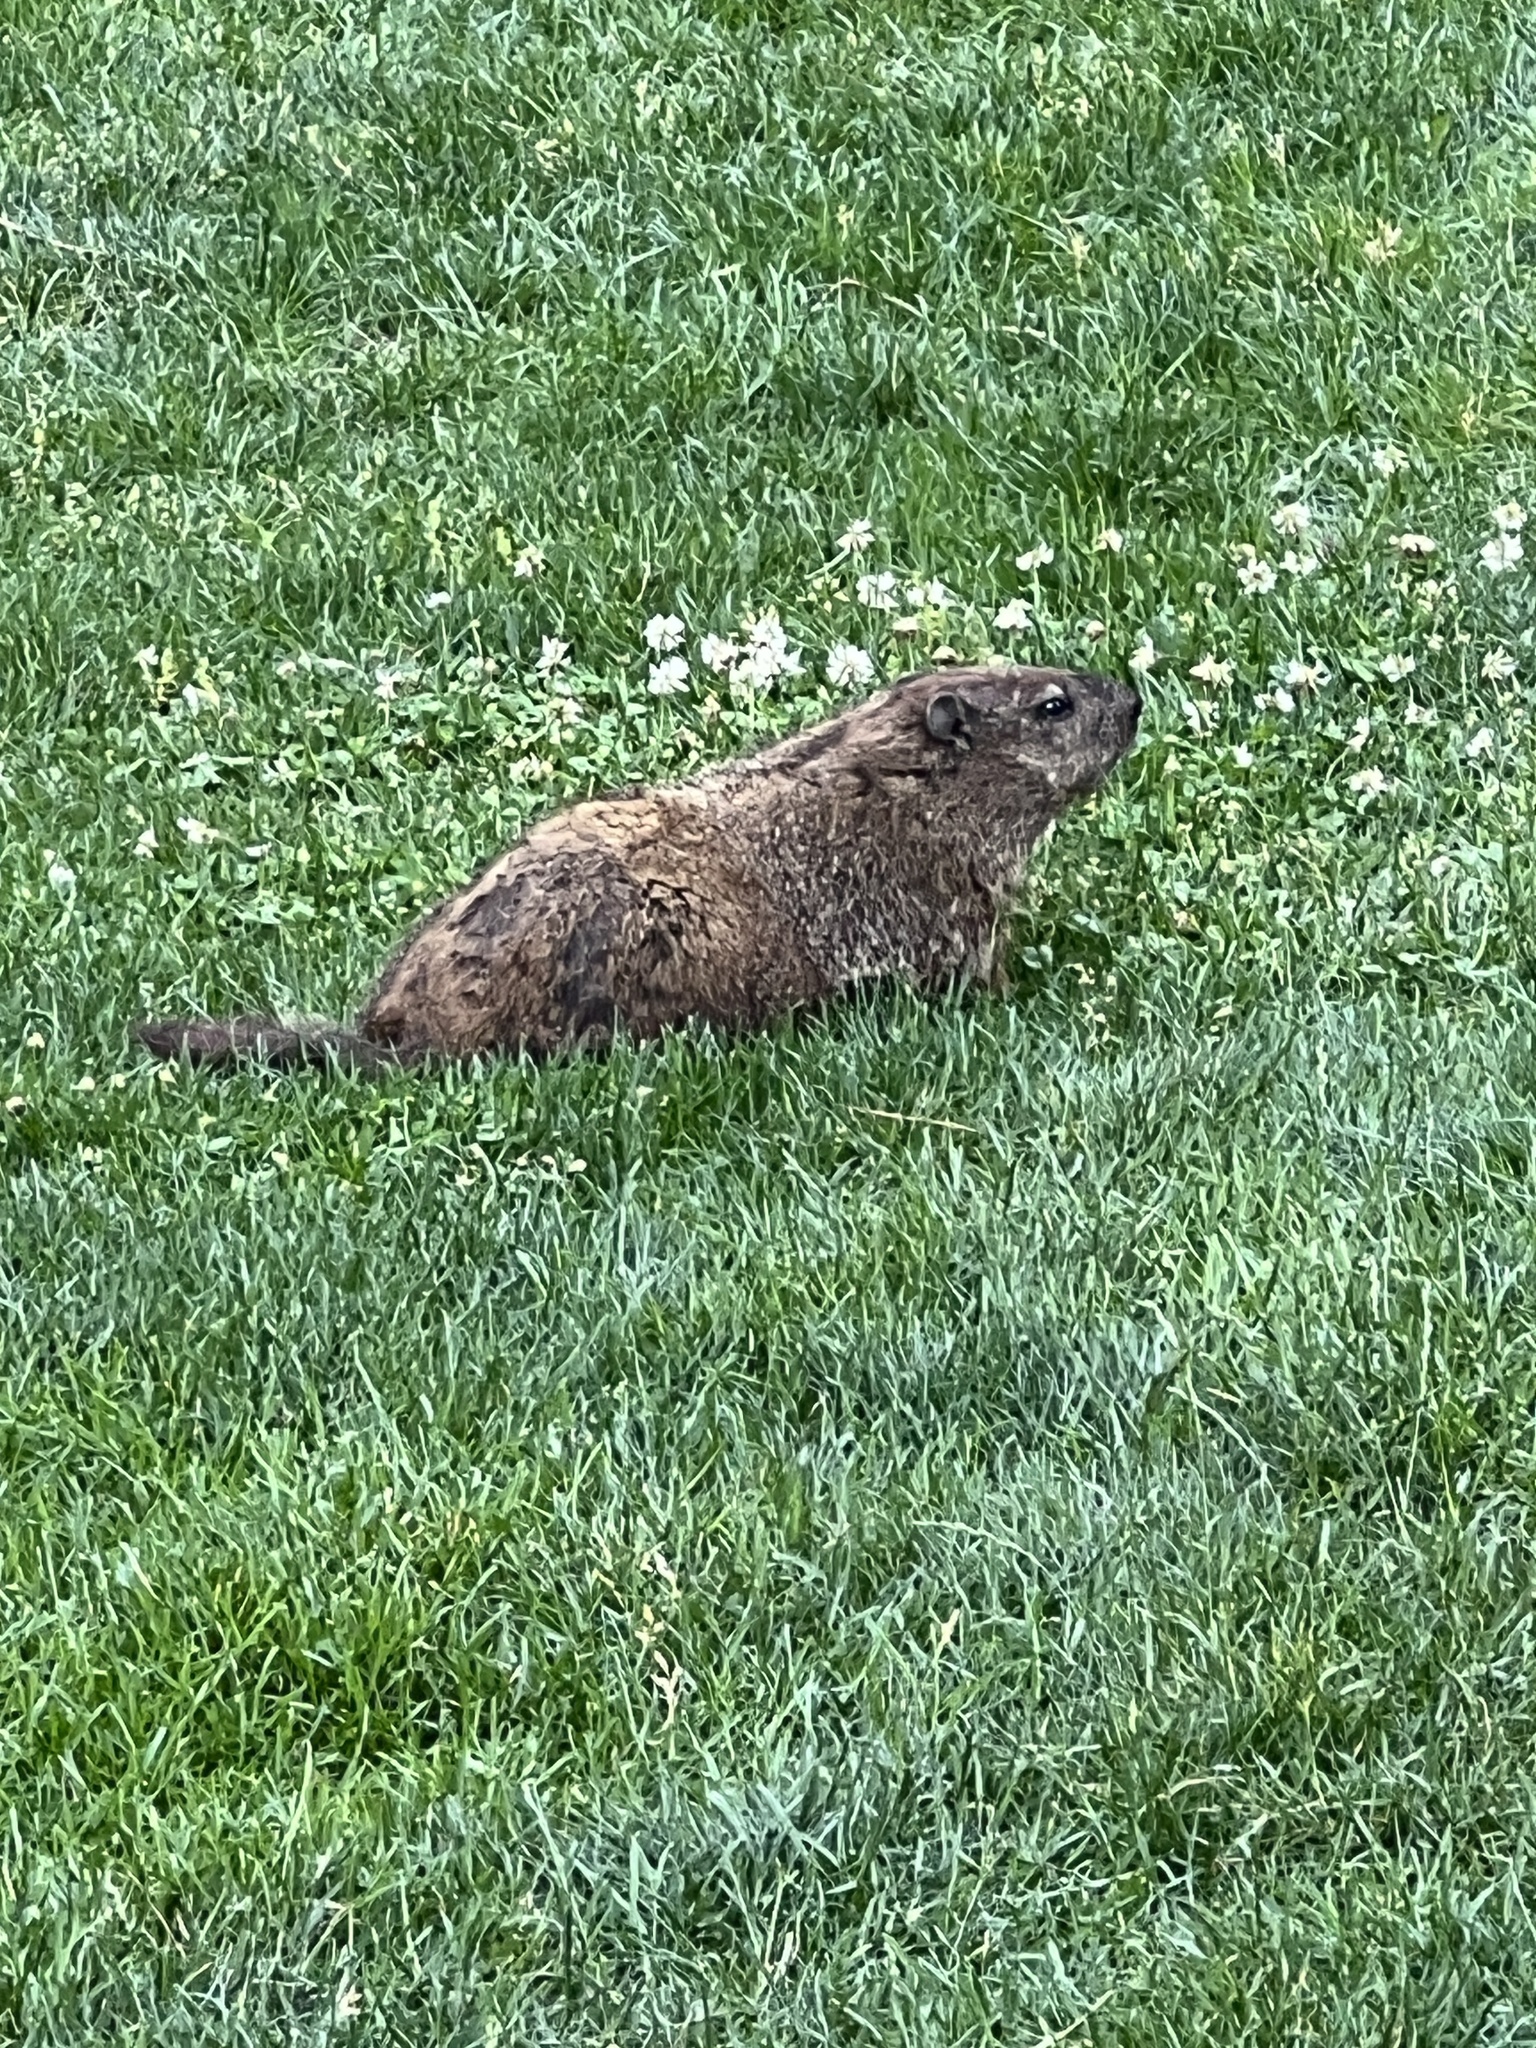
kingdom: Animalia
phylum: Chordata
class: Mammalia
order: Rodentia
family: Sciuridae
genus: Marmota
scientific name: Marmota monax
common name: Groundhog
